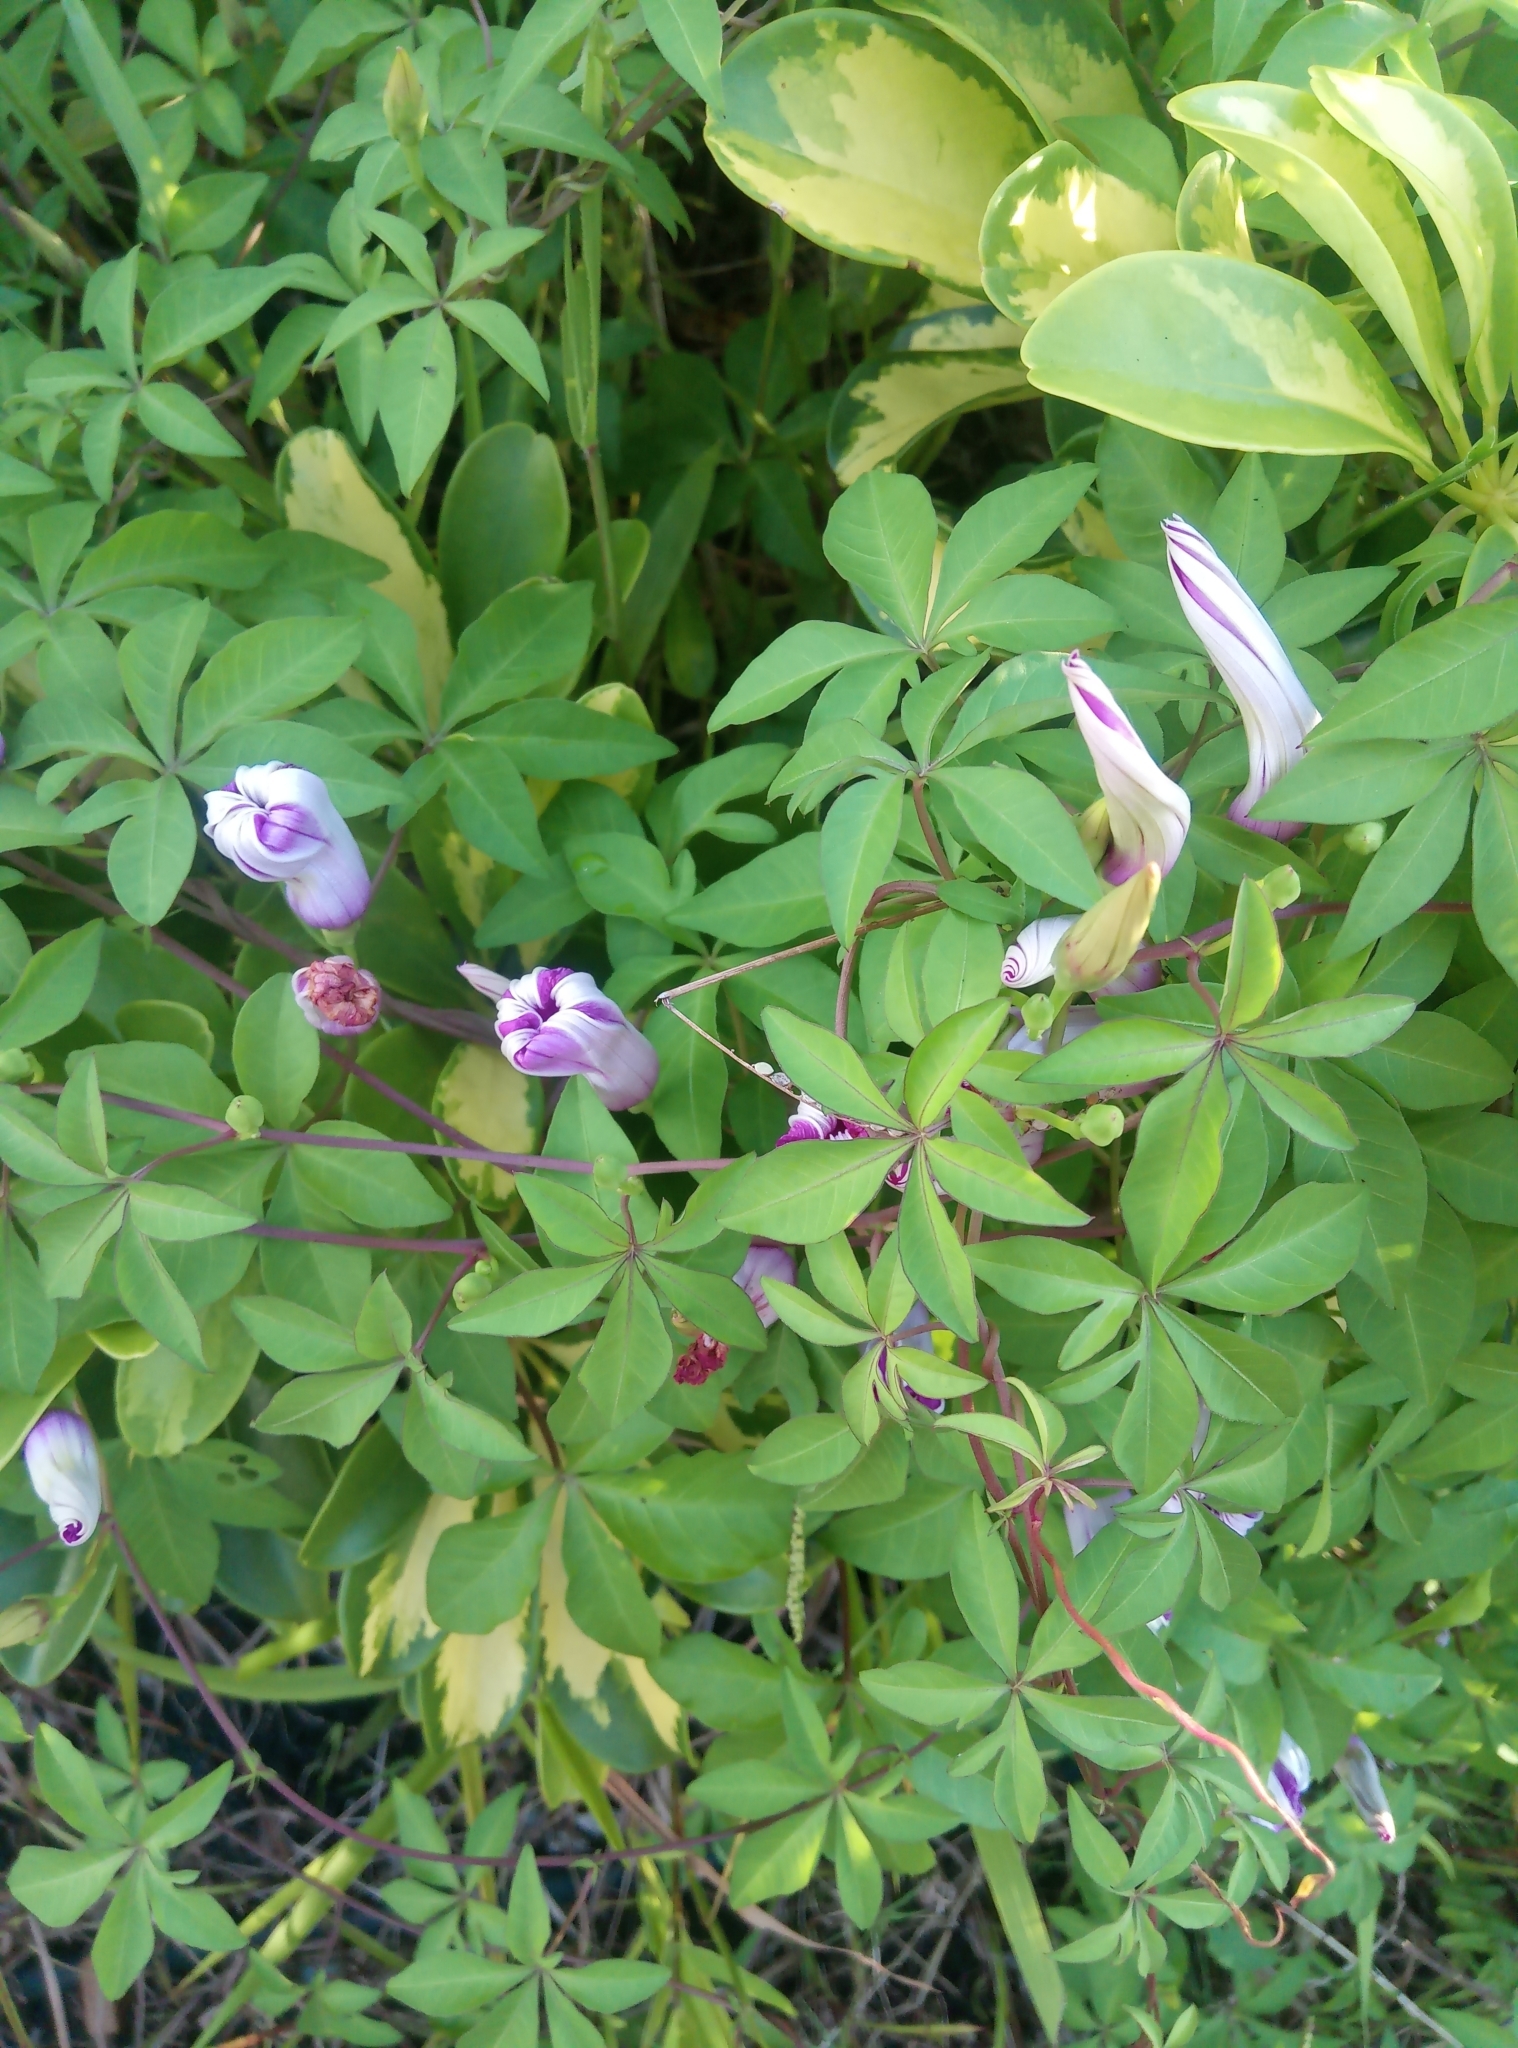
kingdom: Plantae
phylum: Tracheophyta
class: Magnoliopsida
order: Solanales
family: Convolvulaceae
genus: Ipomoea
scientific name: Ipomoea cairica
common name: Mile a minute vine
